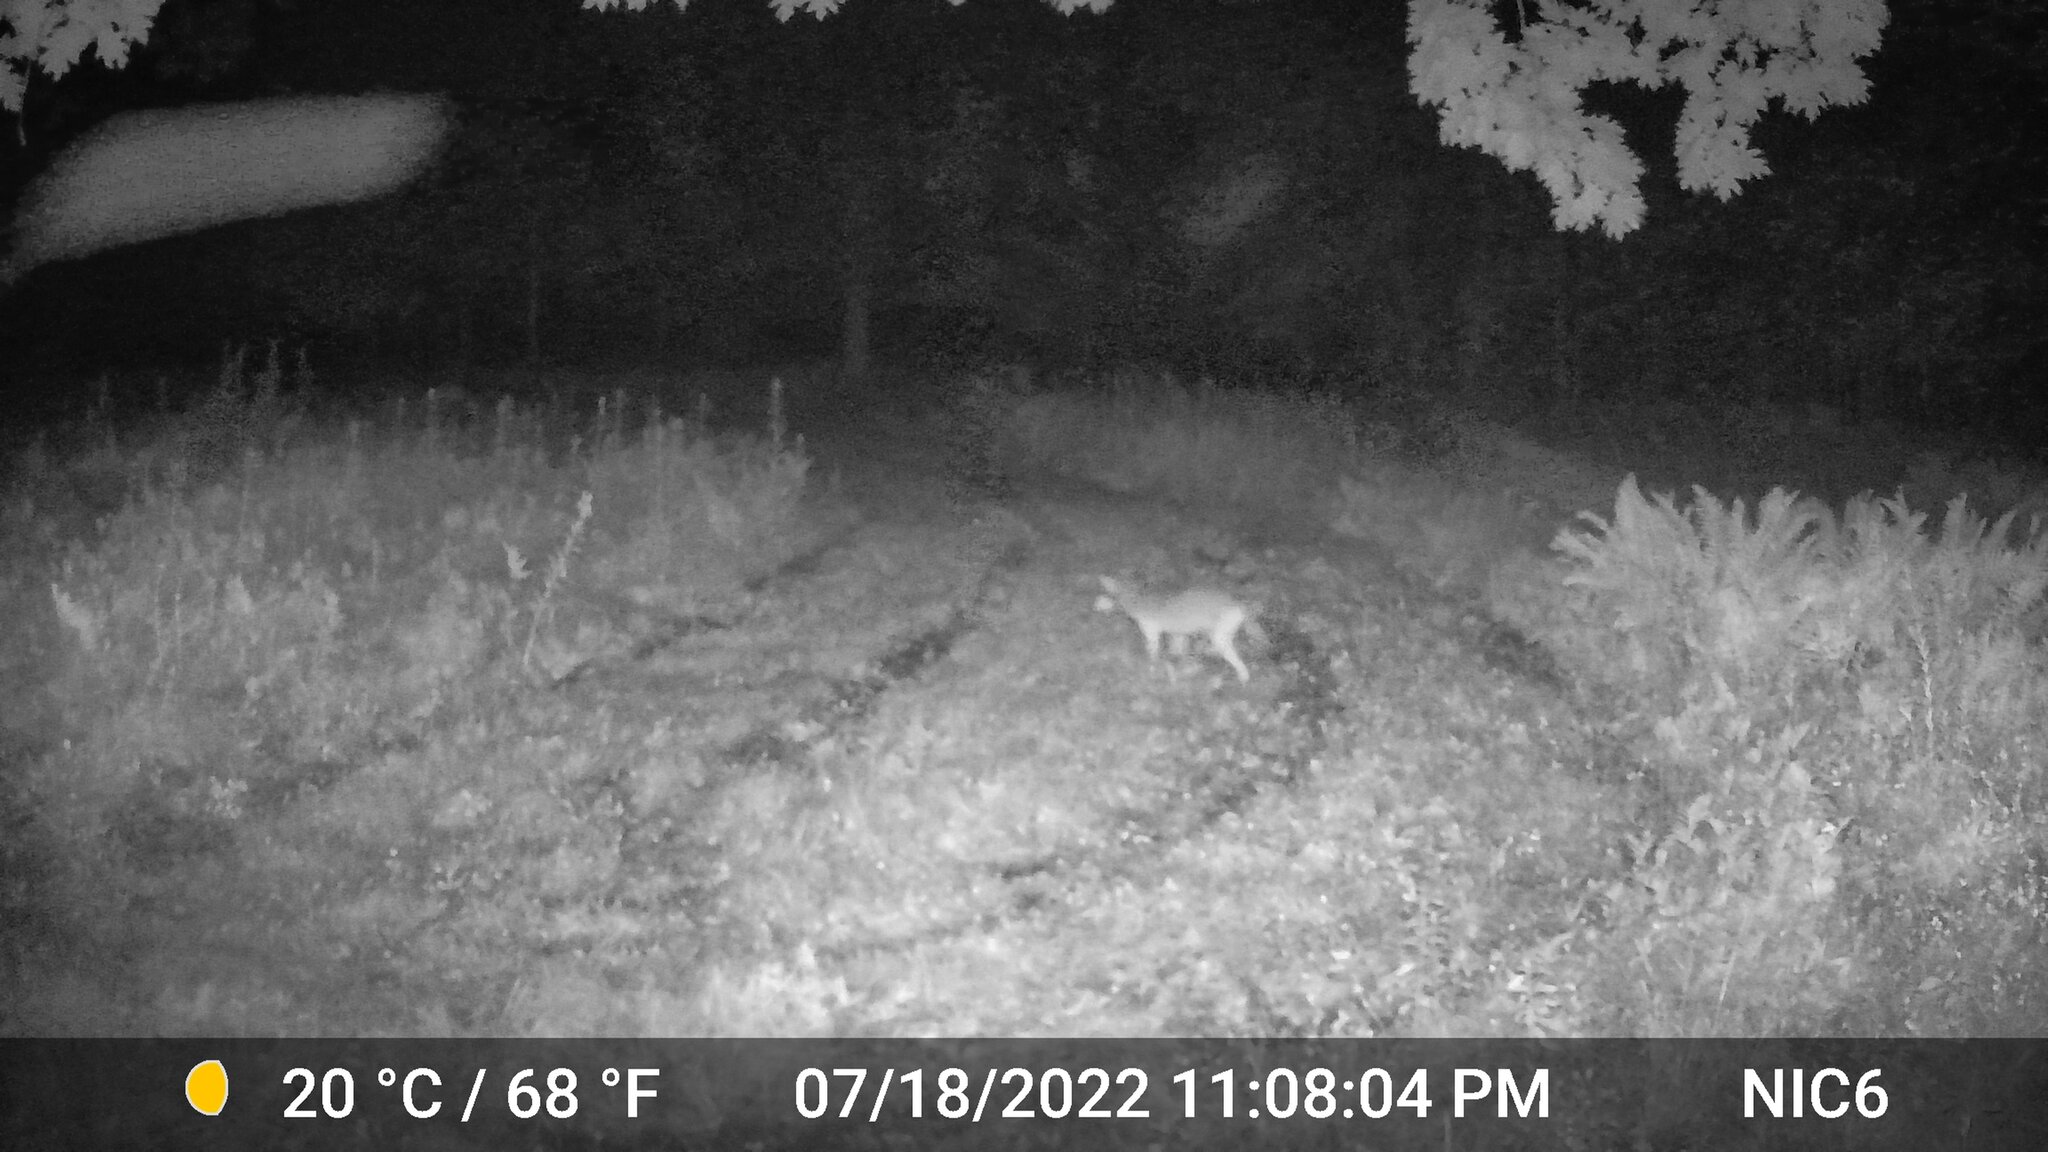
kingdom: Animalia
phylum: Chordata
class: Mammalia
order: Carnivora
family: Canidae
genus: Canis
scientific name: Canis latrans
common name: Coyote
